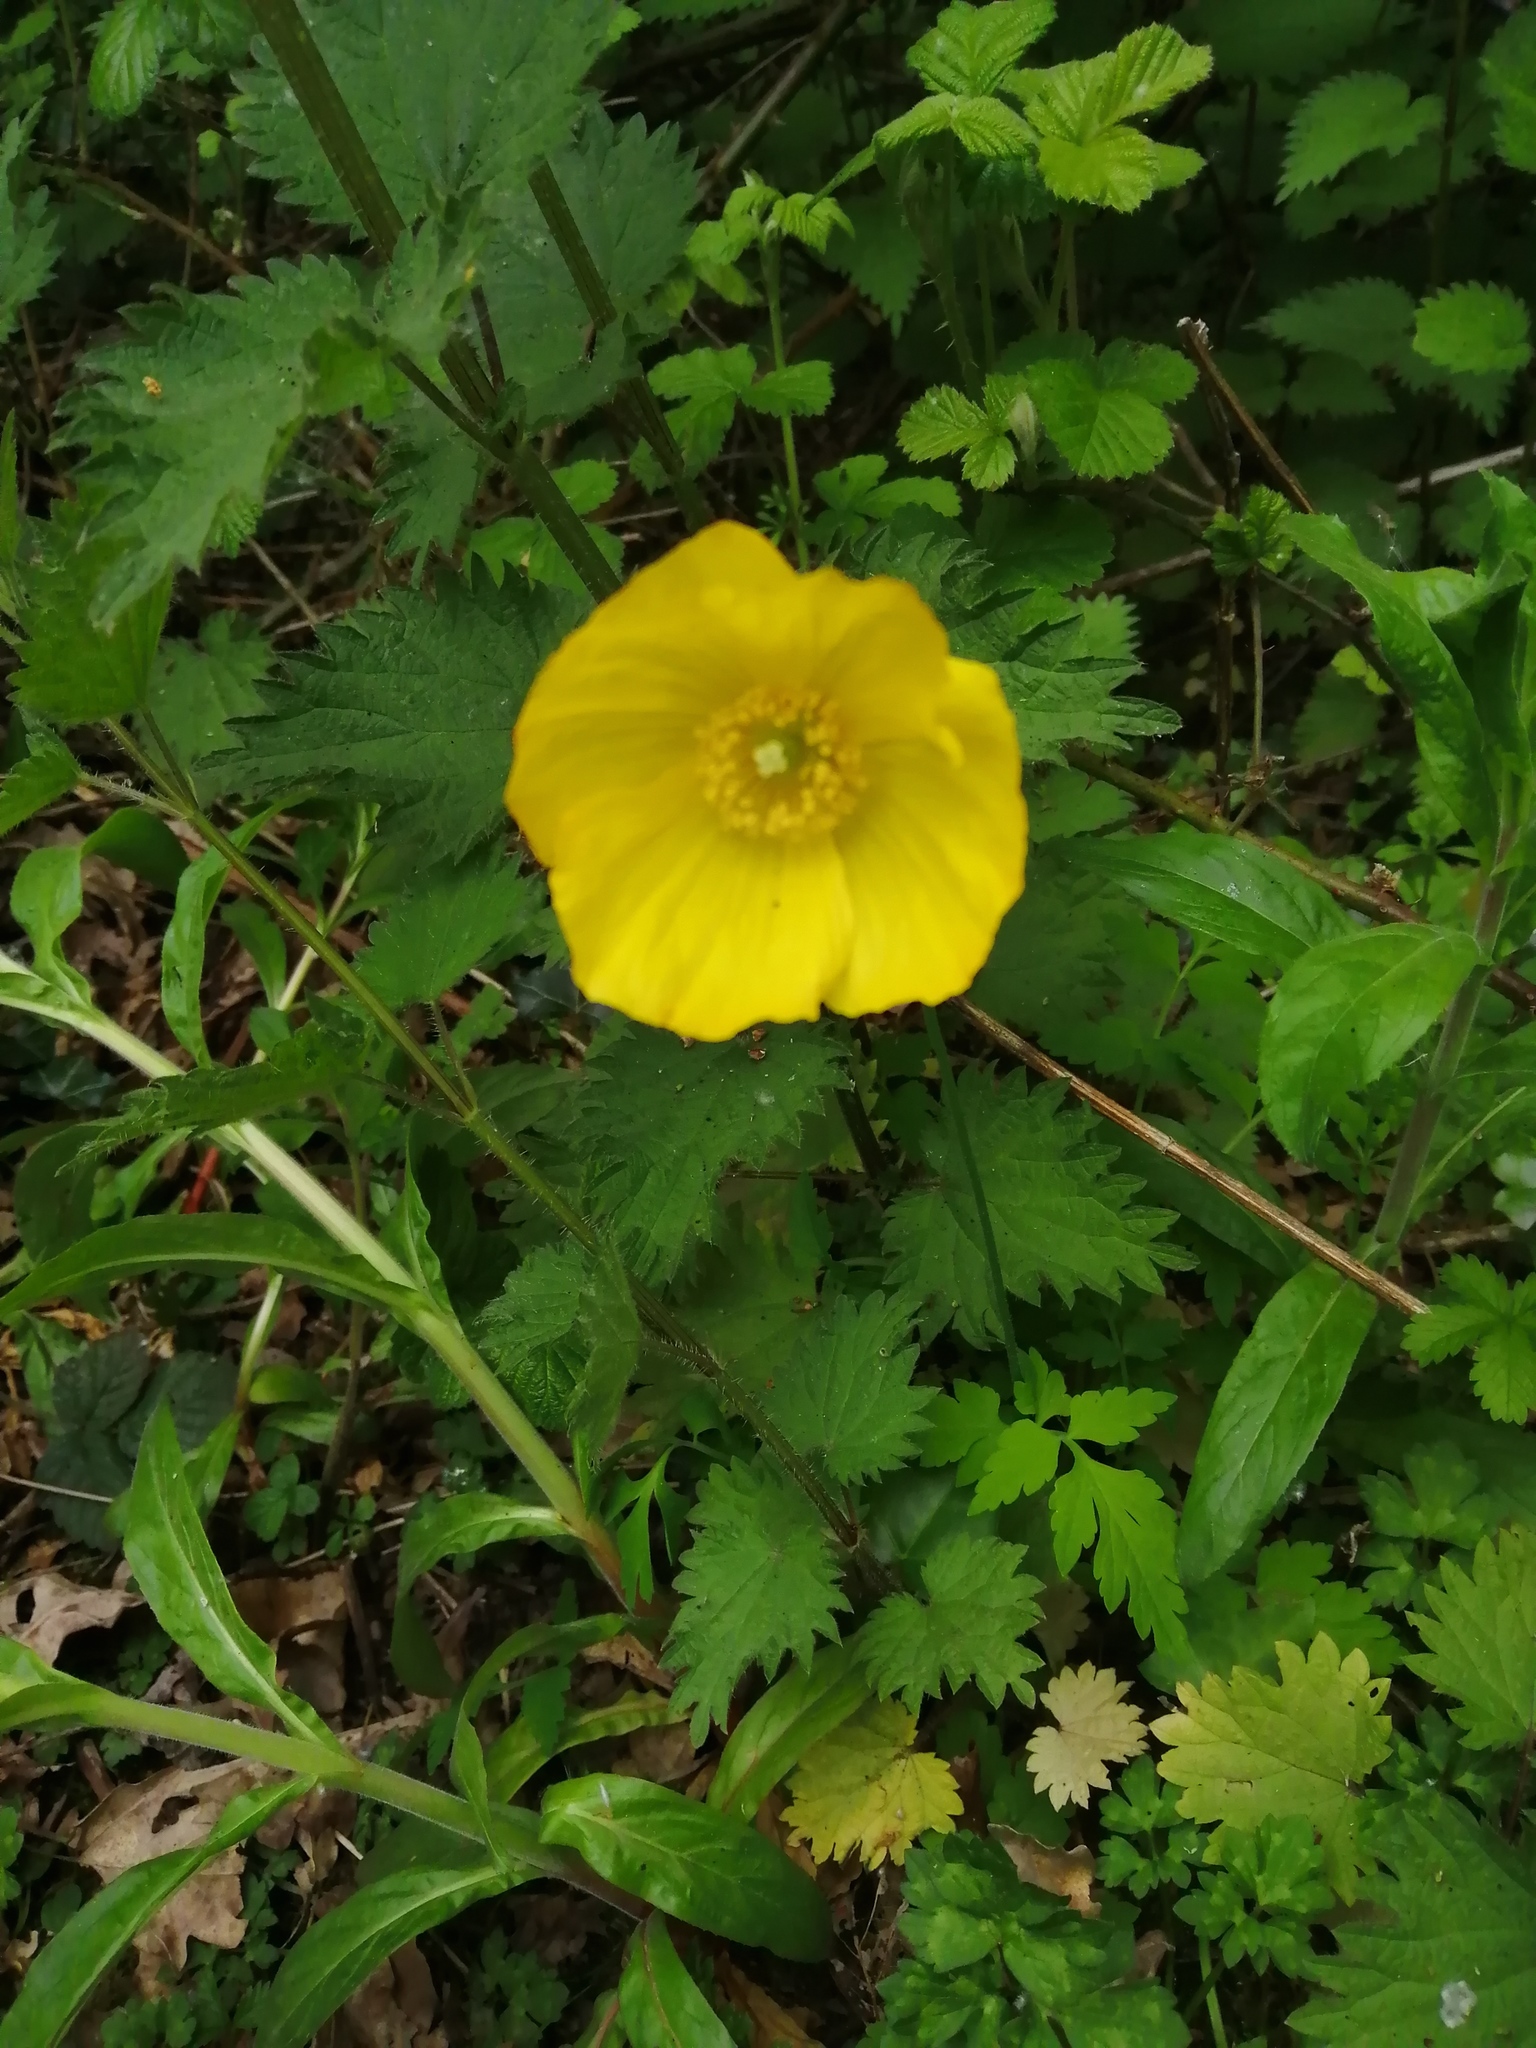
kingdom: Plantae
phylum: Tracheophyta
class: Magnoliopsida
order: Ranunculales
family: Papaveraceae
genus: Papaver
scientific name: Papaver cambricum
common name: Poppy
